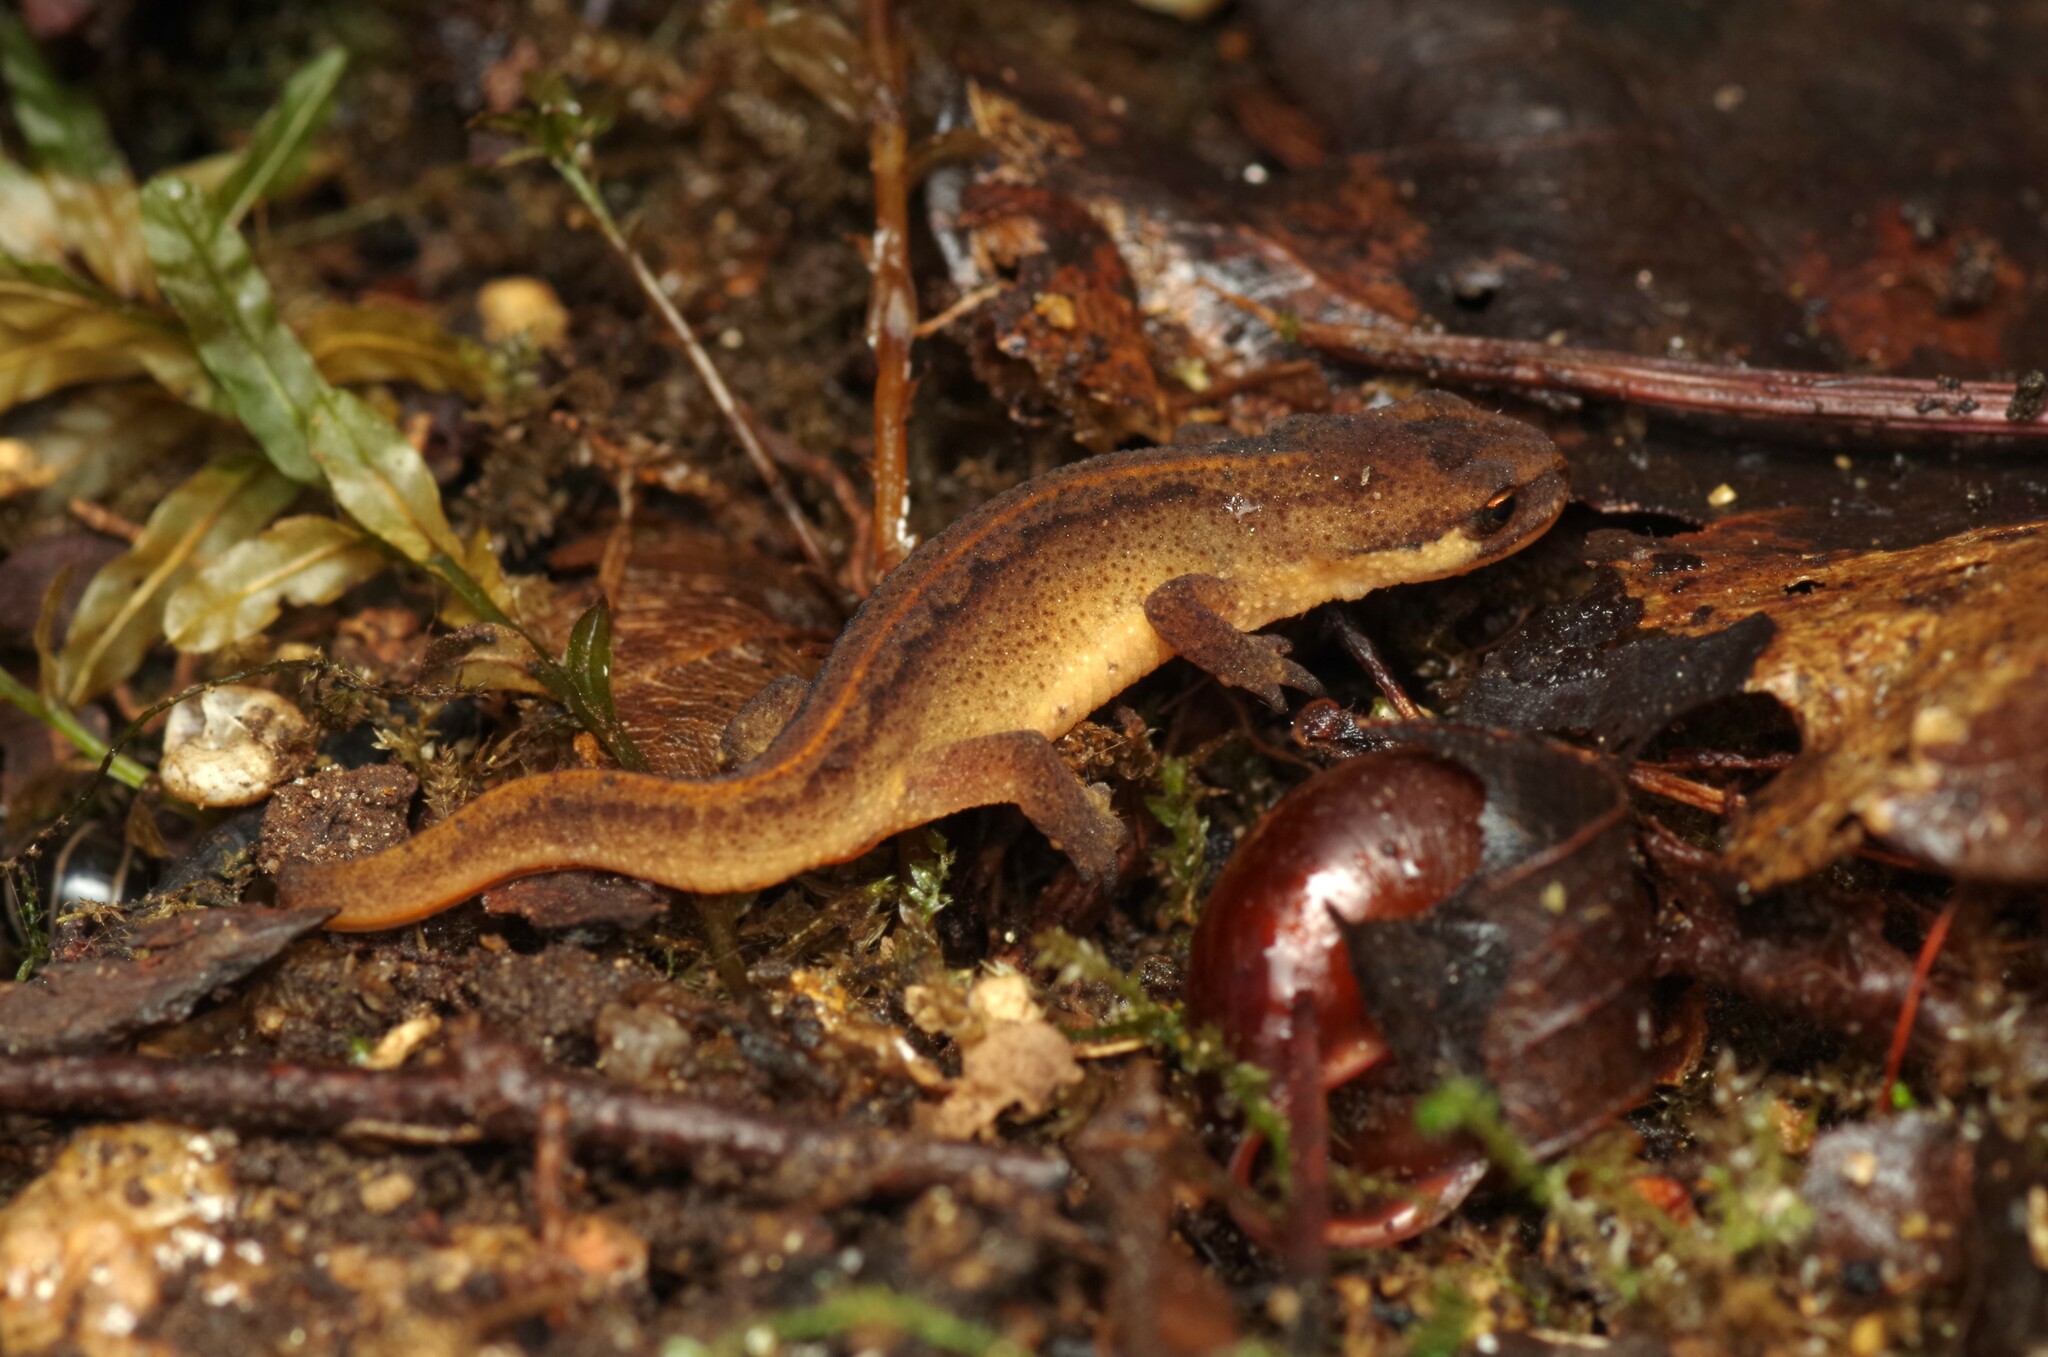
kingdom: Animalia
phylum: Chordata
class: Amphibia
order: Caudata
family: Salamandridae
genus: Lissotriton
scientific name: Lissotriton helveticus
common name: Palmate newt
